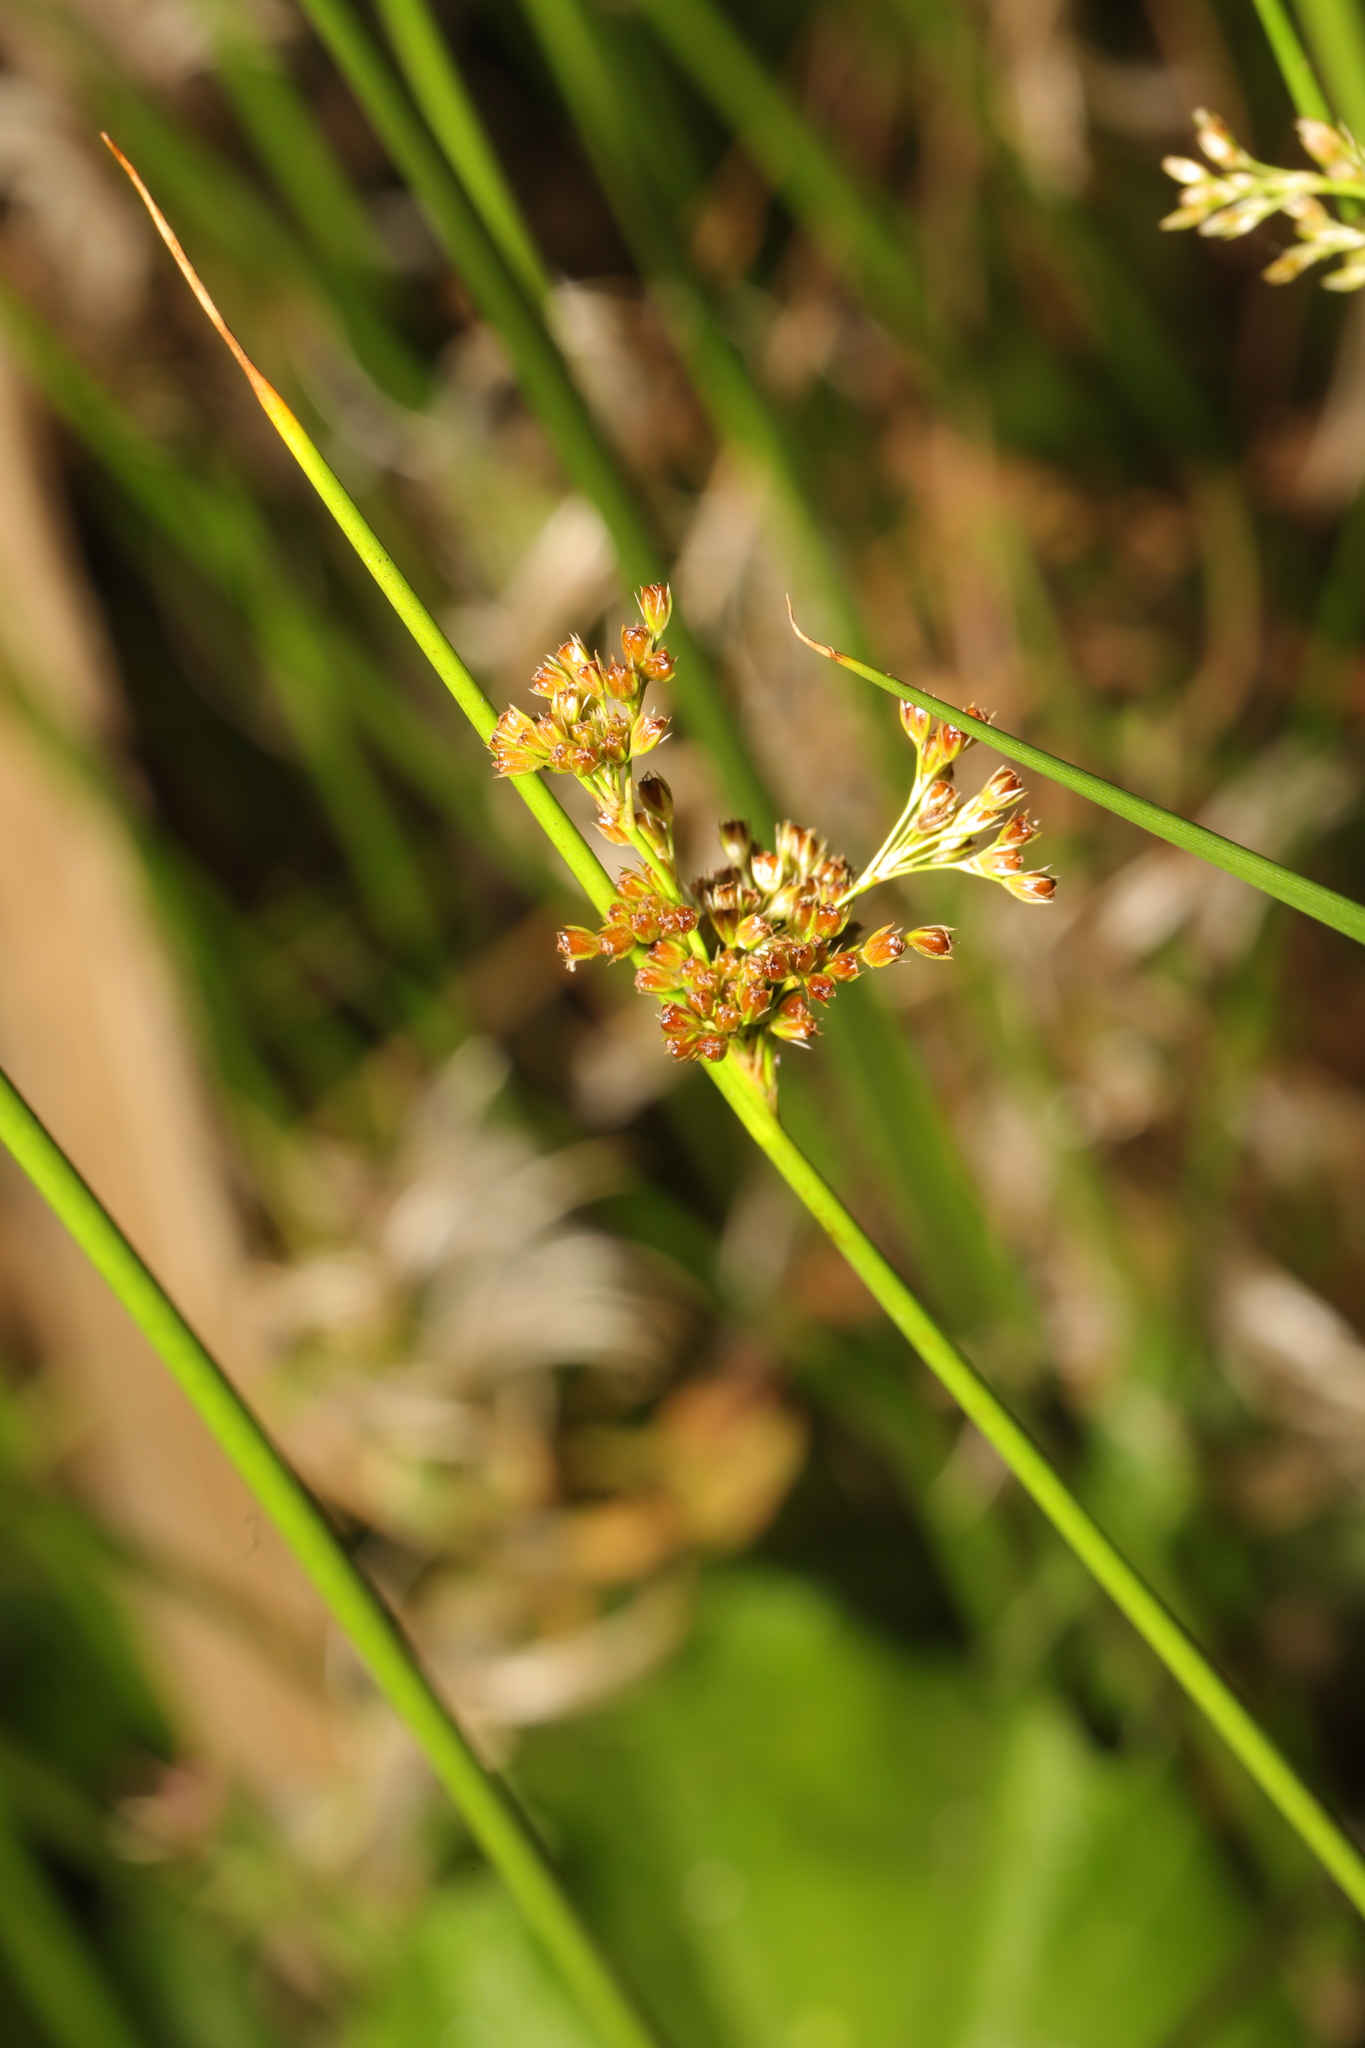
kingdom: Plantae
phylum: Tracheophyta
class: Liliopsida
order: Poales
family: Juncaceae
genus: Juncus
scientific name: Juncus effusus
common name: Soft rush
